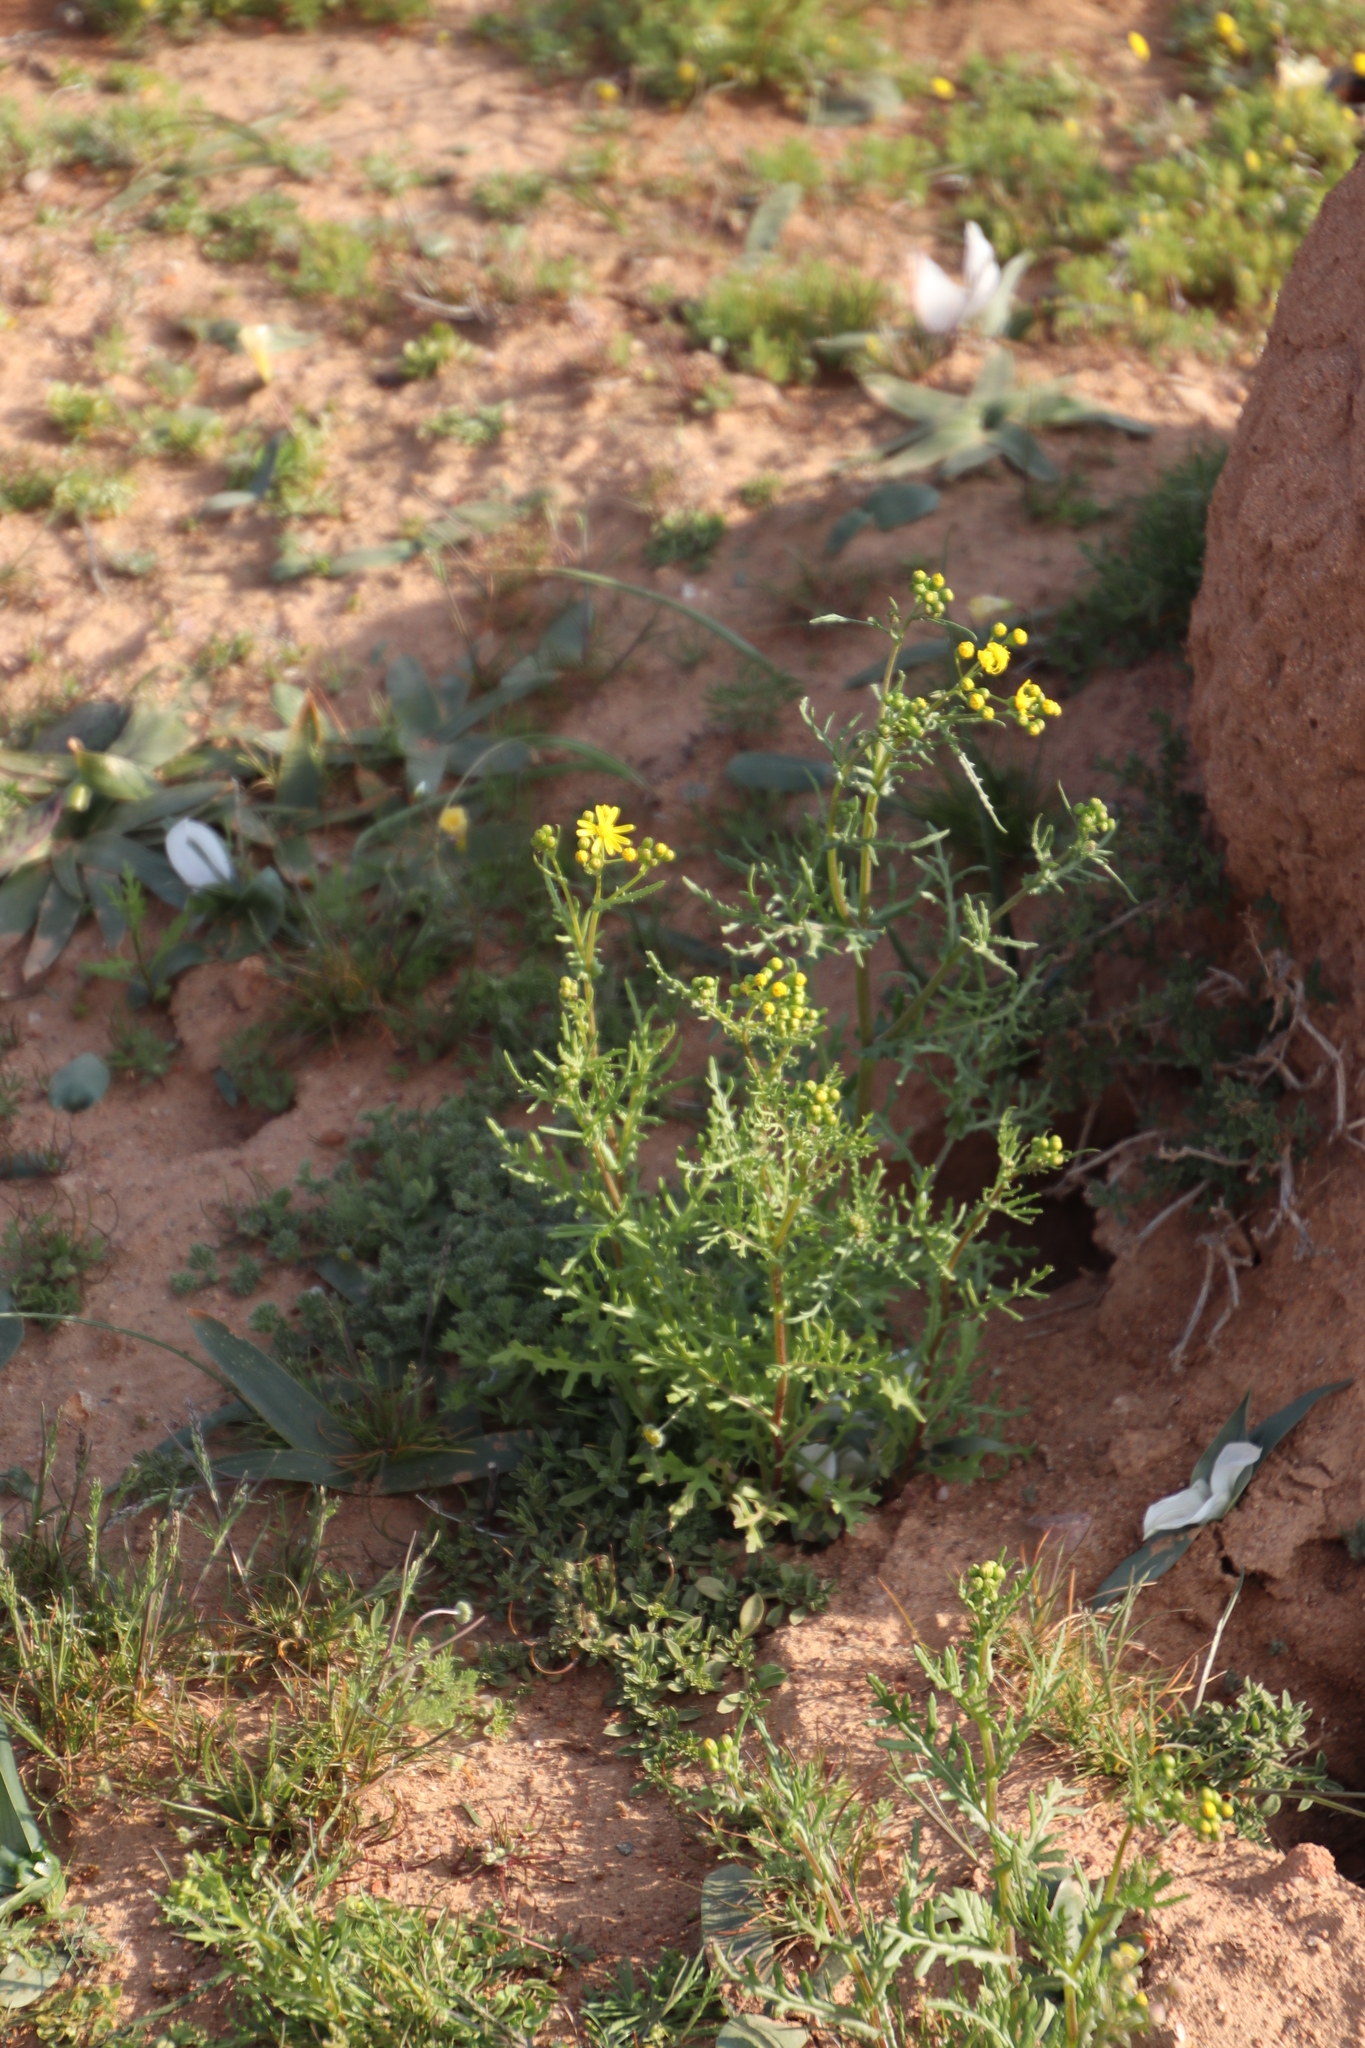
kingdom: Plantae
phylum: Tracheophyta
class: Magnoliopsida
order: Asterales
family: Asteraceae
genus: Senecio
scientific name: Senecio abruptus
